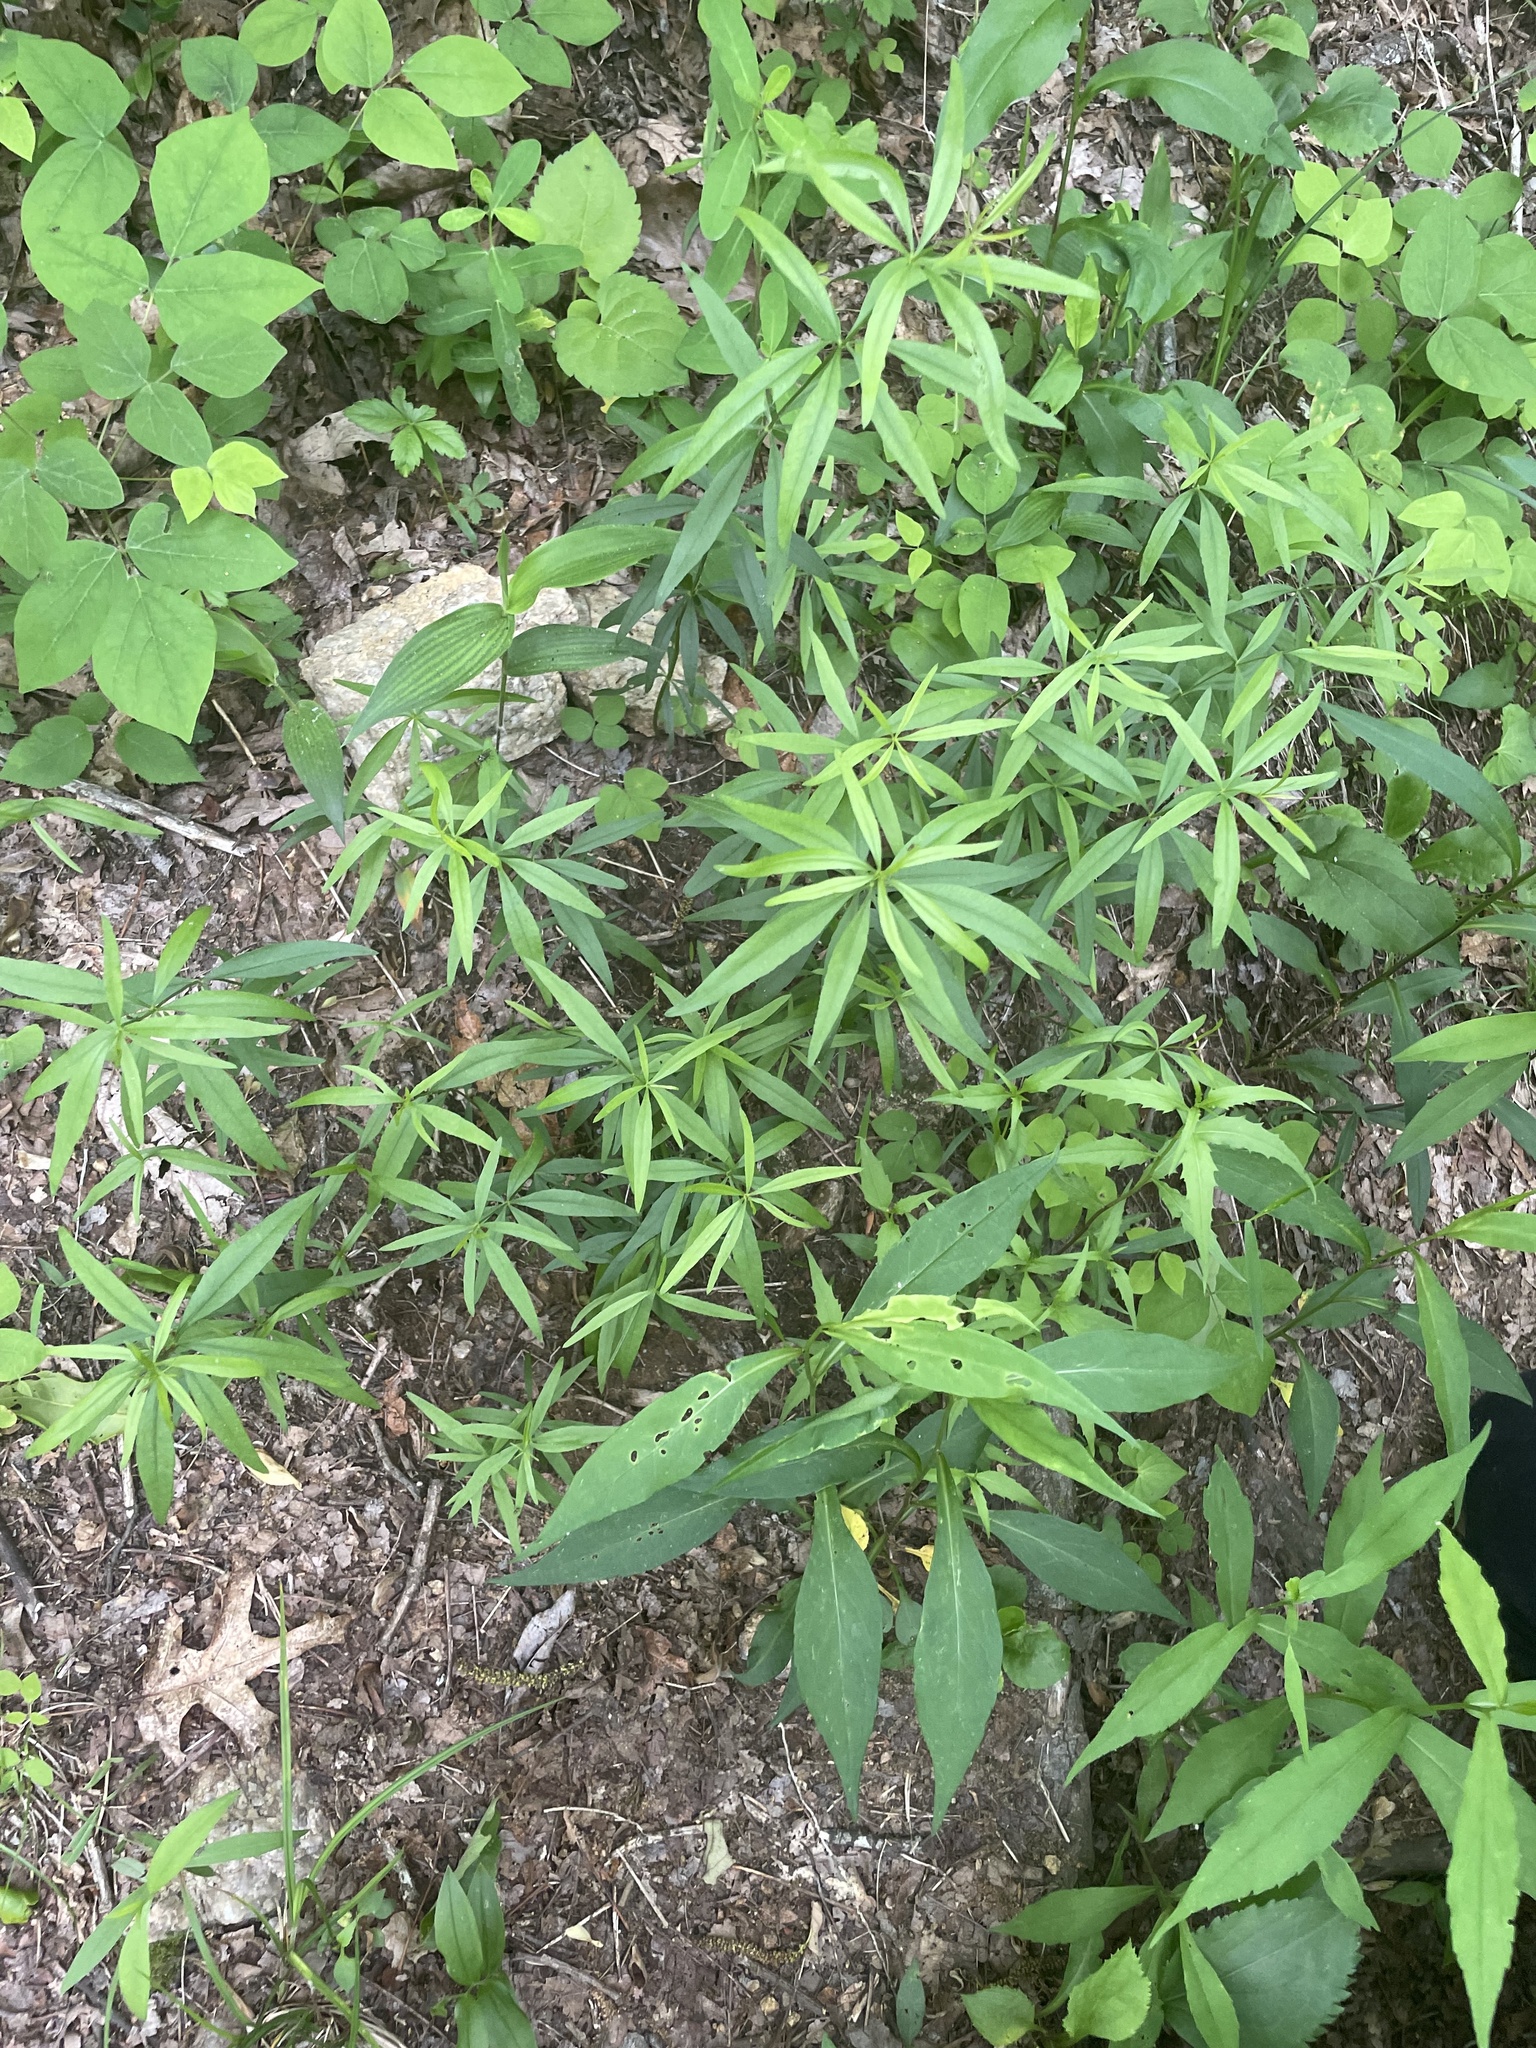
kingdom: Plantae
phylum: Tracheophyta
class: Magnoliopsida
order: Asterales
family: Asteraceae
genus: Coreopsis
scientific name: Coreopsis major
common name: Forest tickseed
